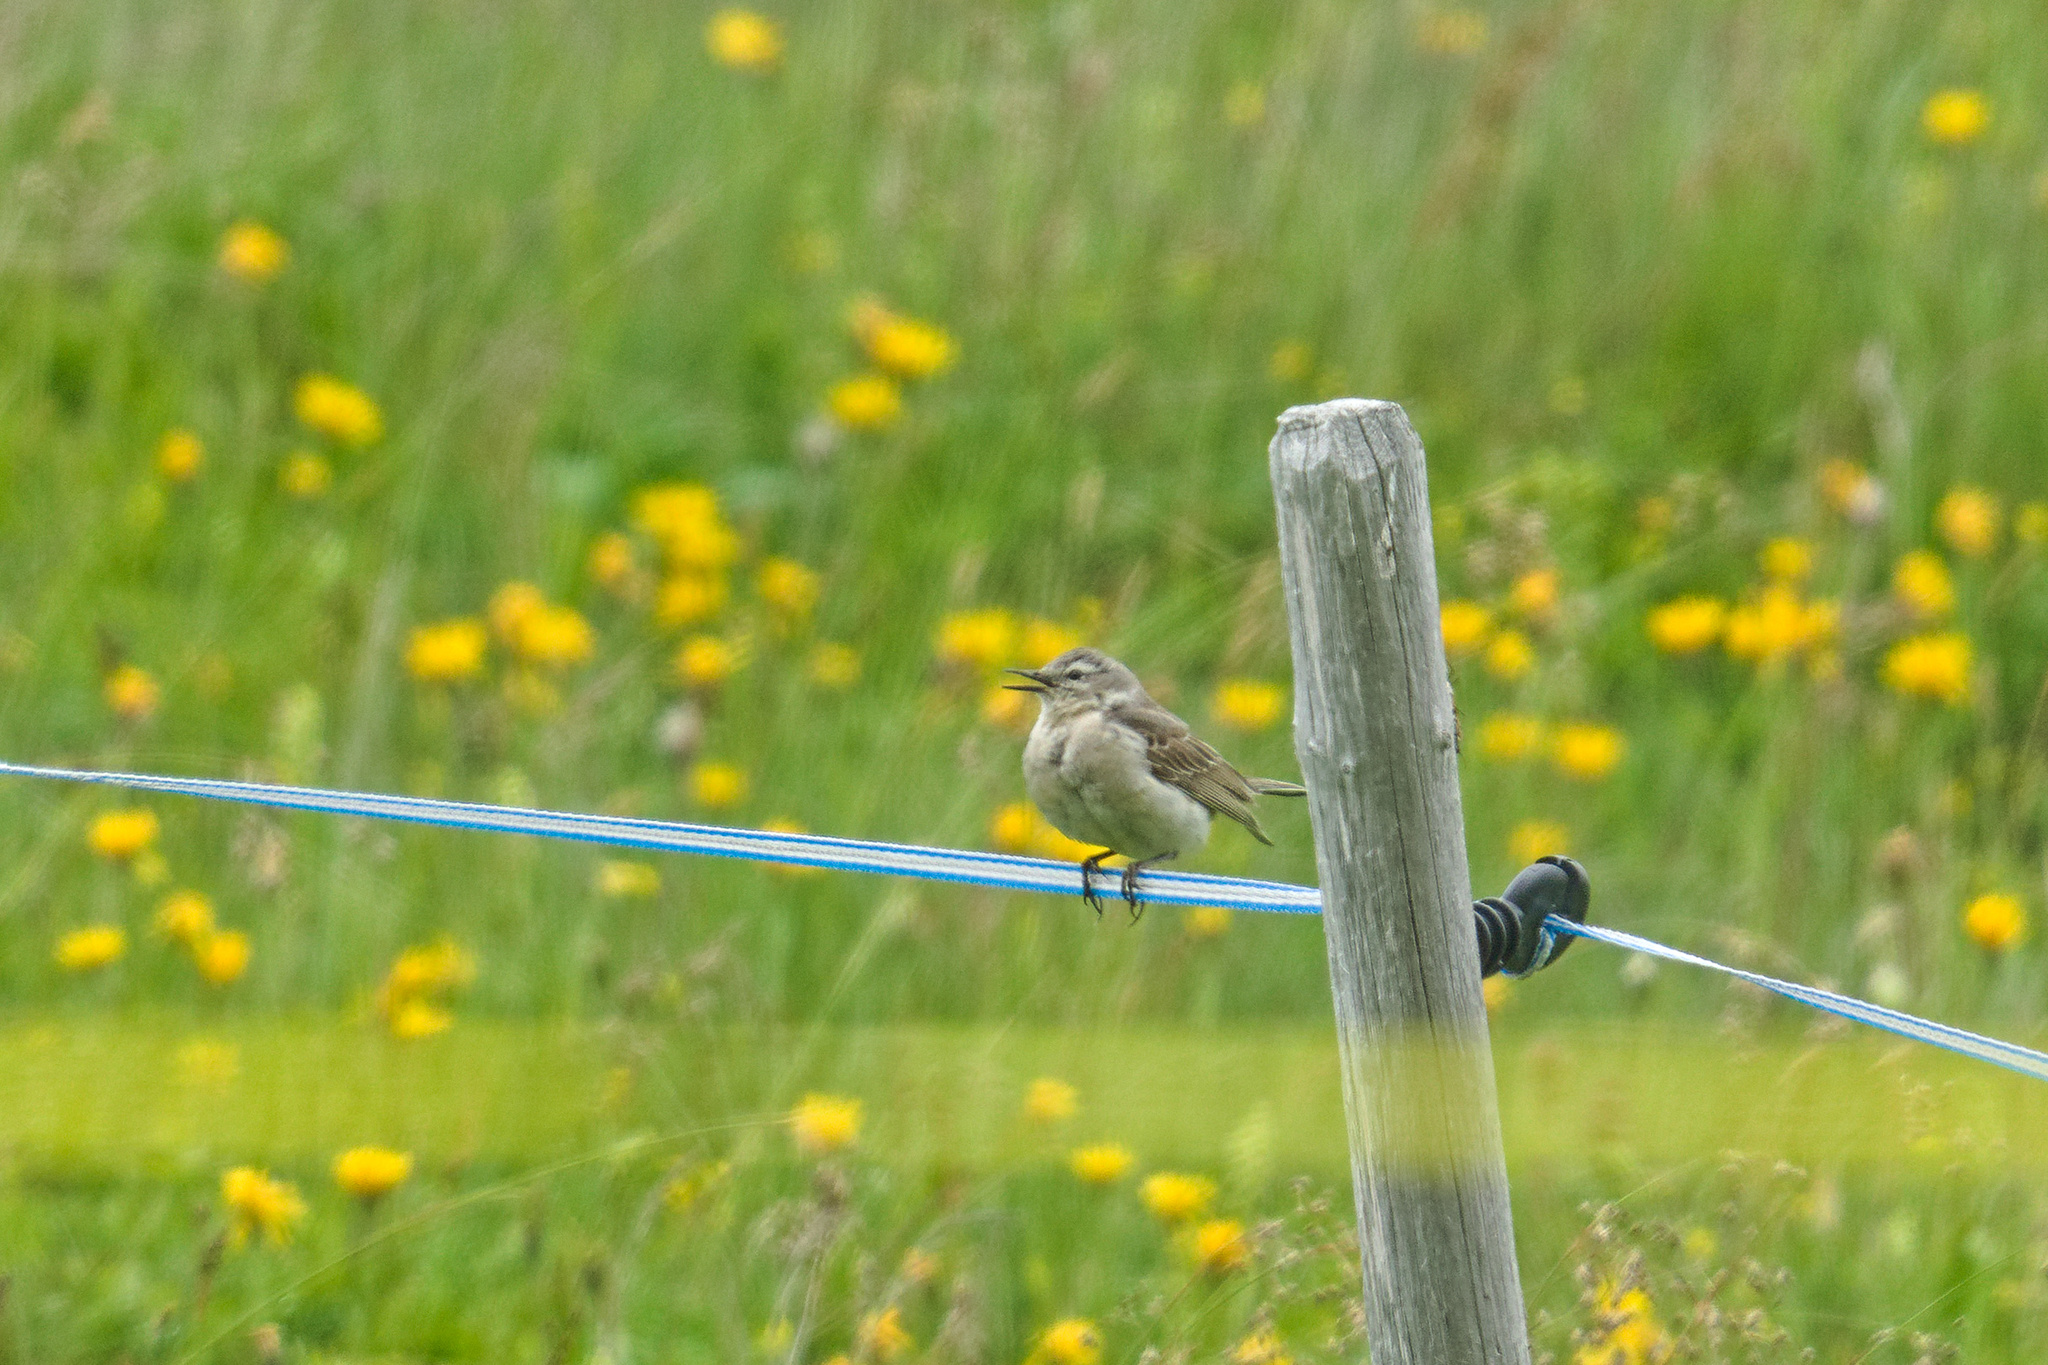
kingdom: Animalia
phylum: Chordata
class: Aves
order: Passeriformes
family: Motacillidae
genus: Anthus
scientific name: Anthus spinoletta
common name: Water pipit
